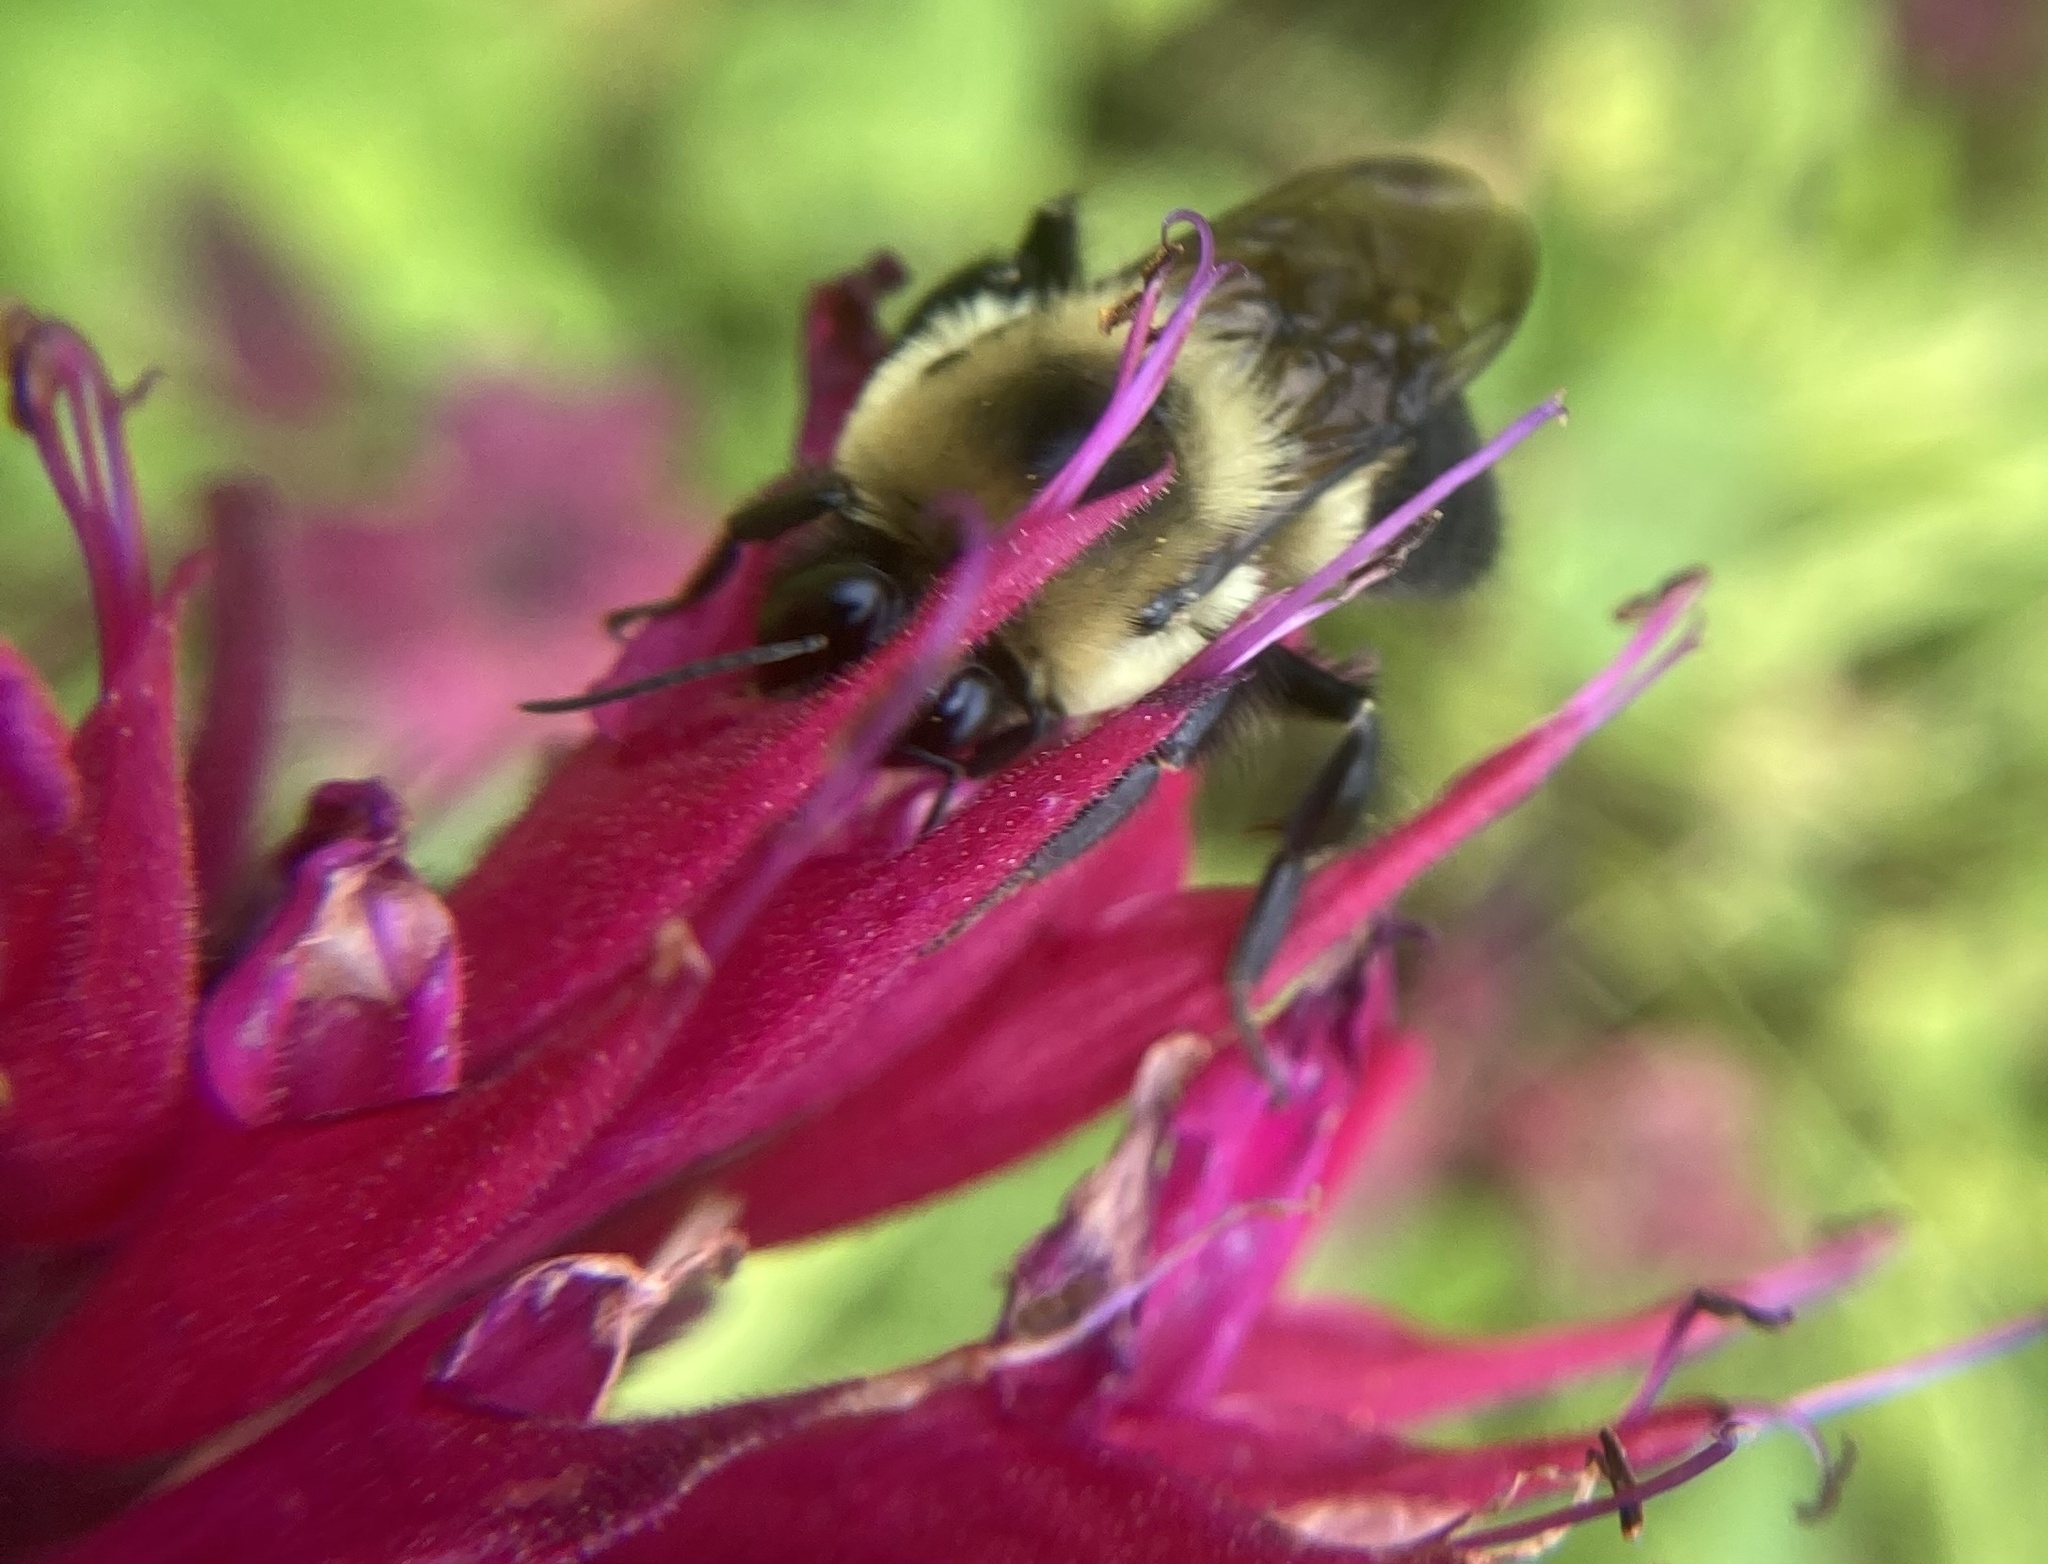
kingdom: Animalia
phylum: Arthropoda
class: Insecta
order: Hymenoptera
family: Apidae
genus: Bombus
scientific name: Bombus griseocollis
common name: Brown-belted bumble bee
